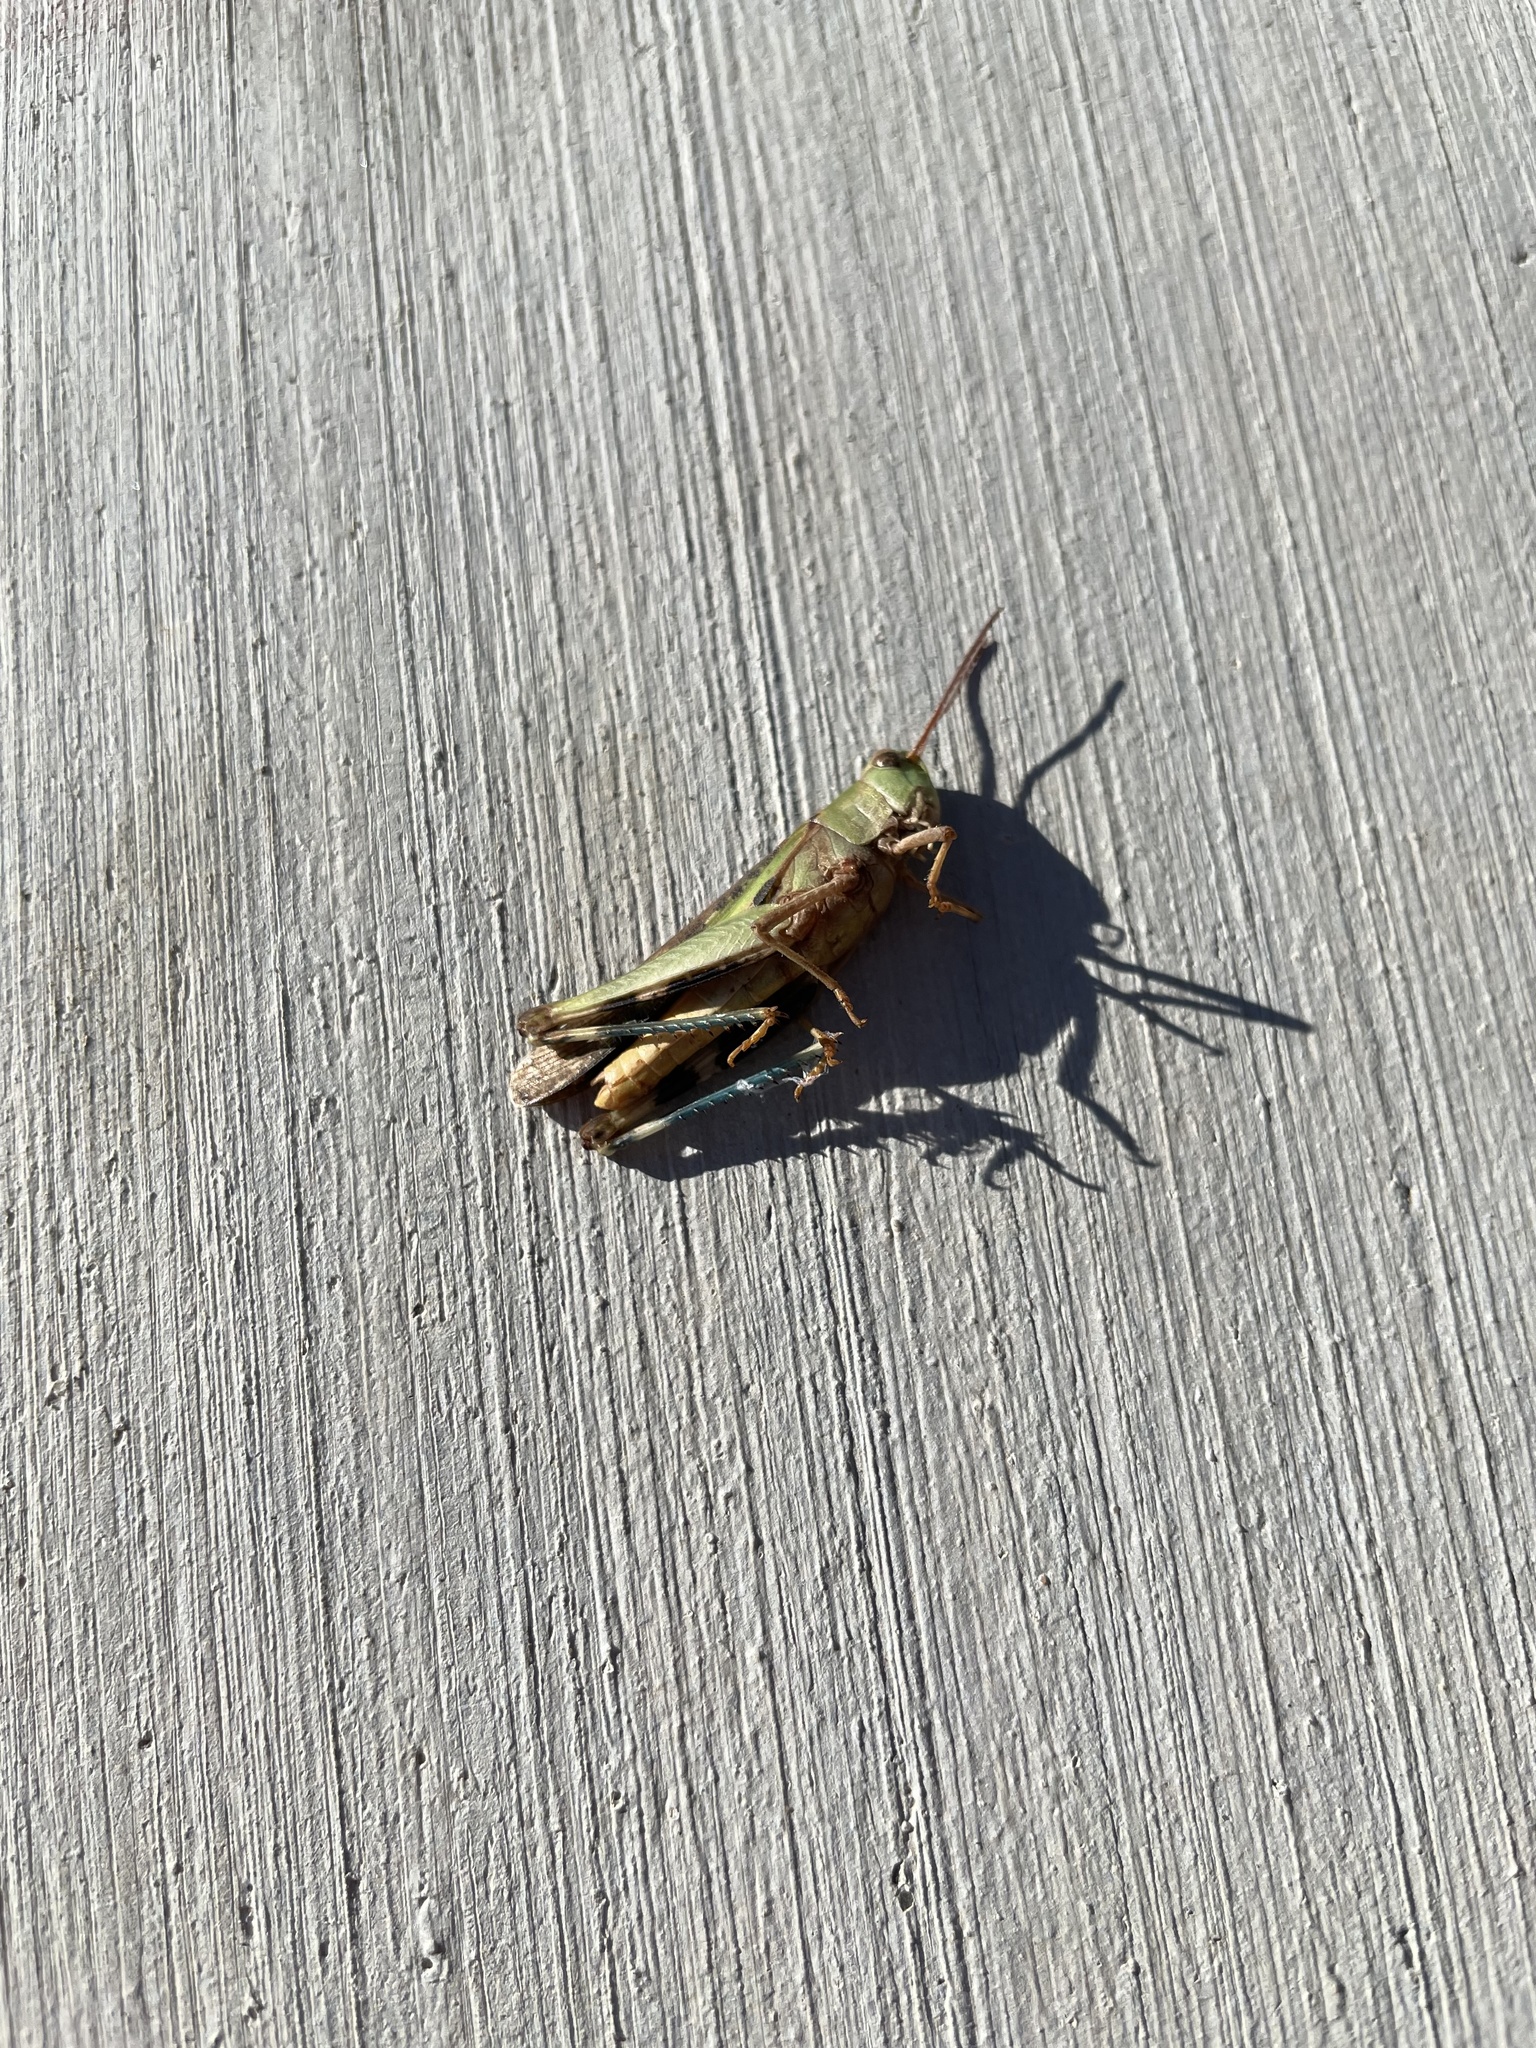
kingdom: Animalia
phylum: Arthropoda
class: Insecta
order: Orthoptera
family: Acrididae
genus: Chortophaga
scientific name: Chortophaga viridifasciata
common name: Green-striped grasshopper
